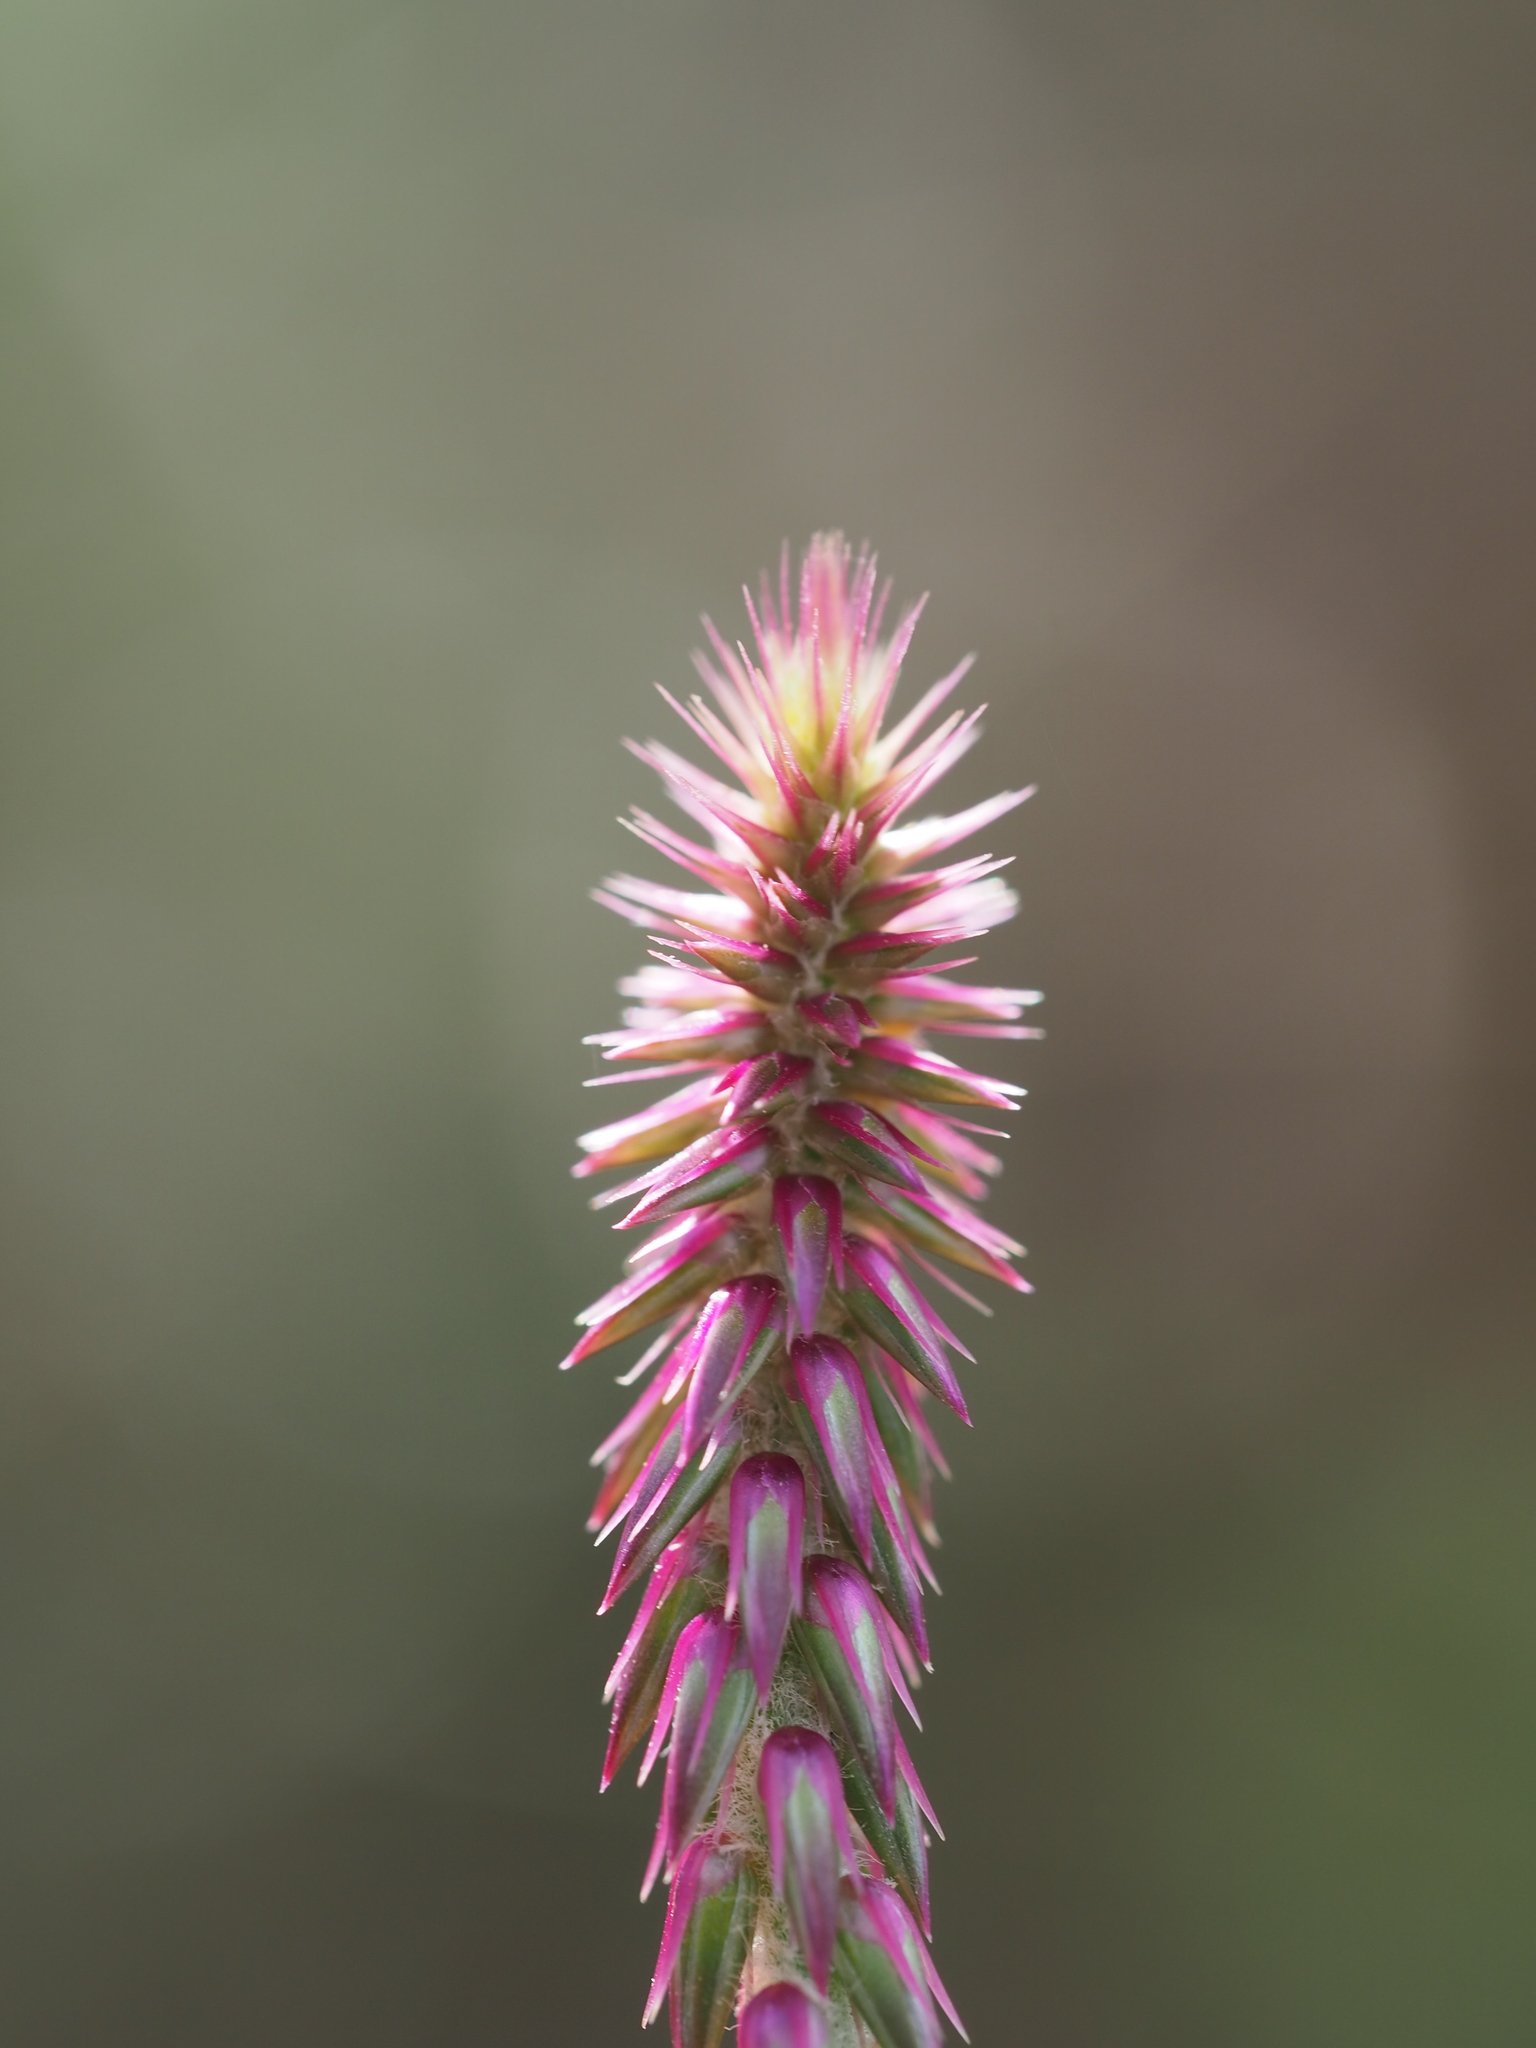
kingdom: Plantae
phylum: Tracheophyta
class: Magnoliopsida
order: Caryophyllales
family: Amaranthaceae
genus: Achyranthes
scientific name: Achyranthes aspera
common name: Devil's horsewhip
